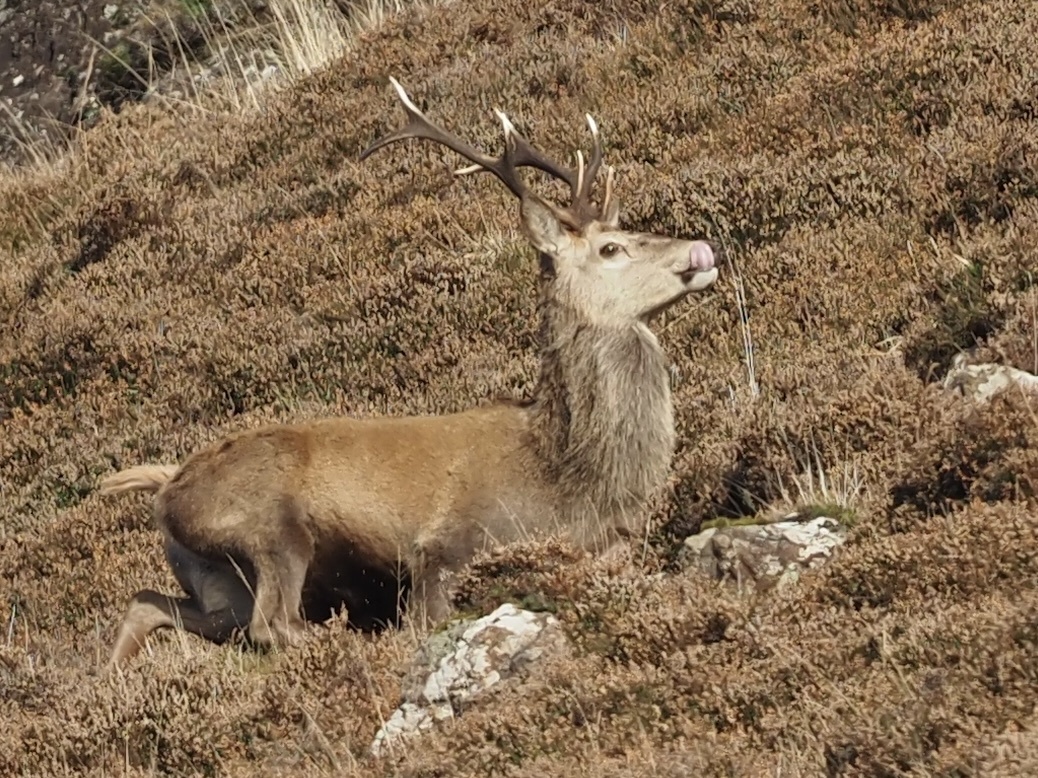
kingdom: Animalia
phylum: Chordata
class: Mammalia
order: Artiodactyla
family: Cervidae
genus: Cervus
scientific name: Cervus elaphus
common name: Red deer
